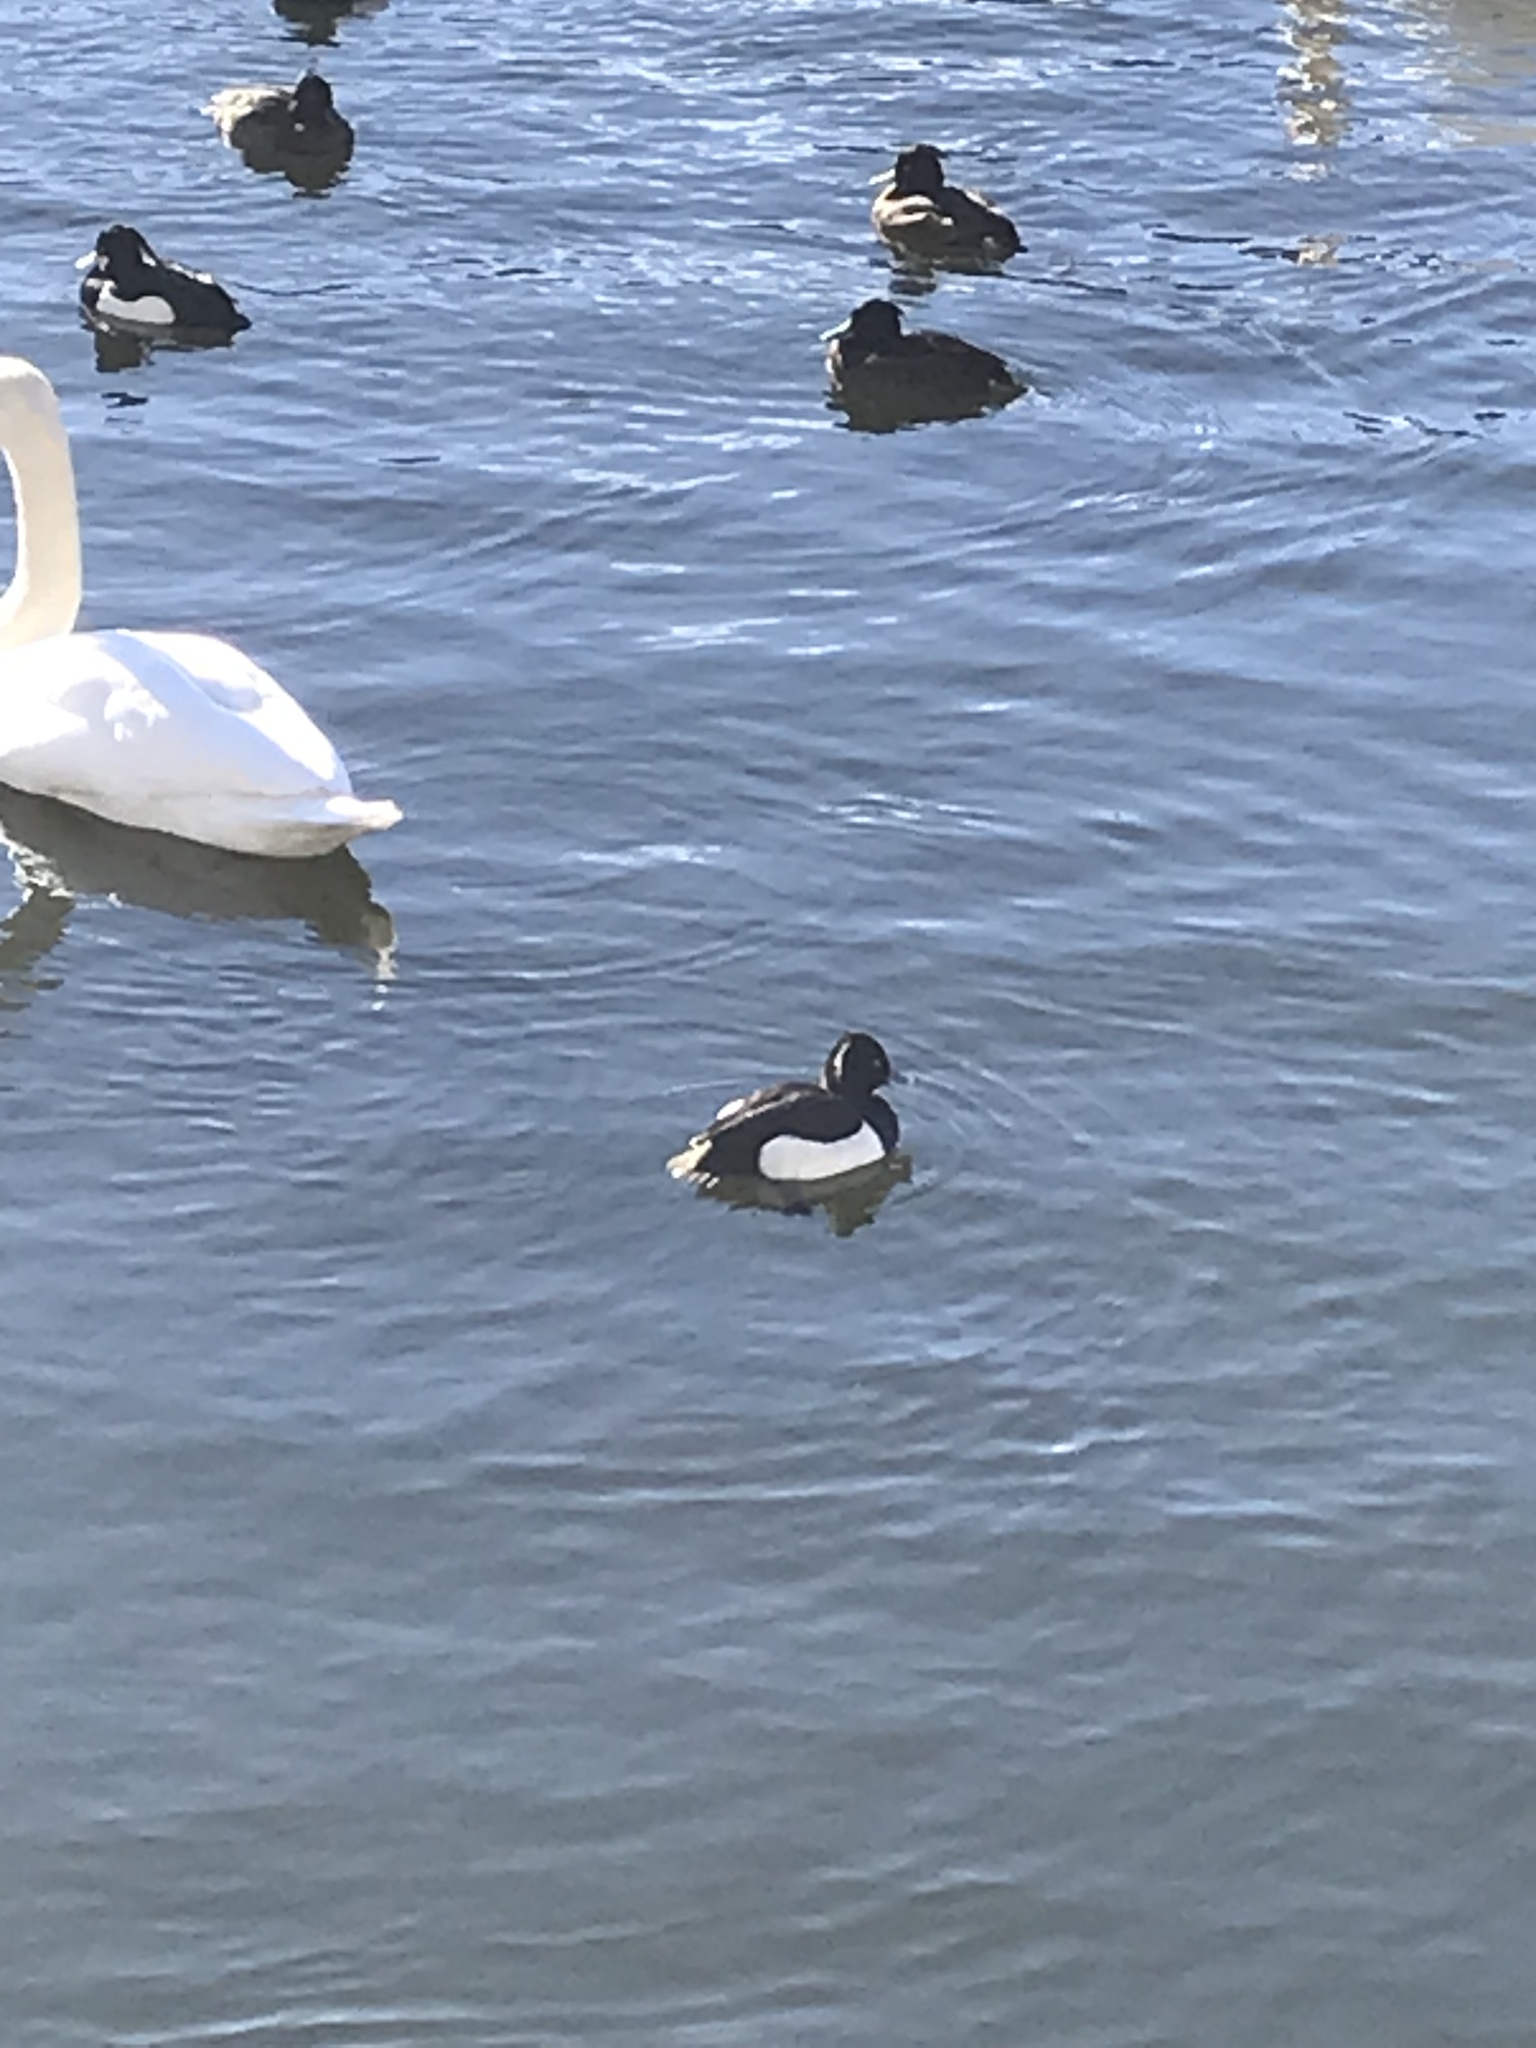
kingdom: Animalia
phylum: Chordata
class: Aves
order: Anseriformes
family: Anatidae
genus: Aythya
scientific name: Aythya fuligula
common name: Tufted duck
